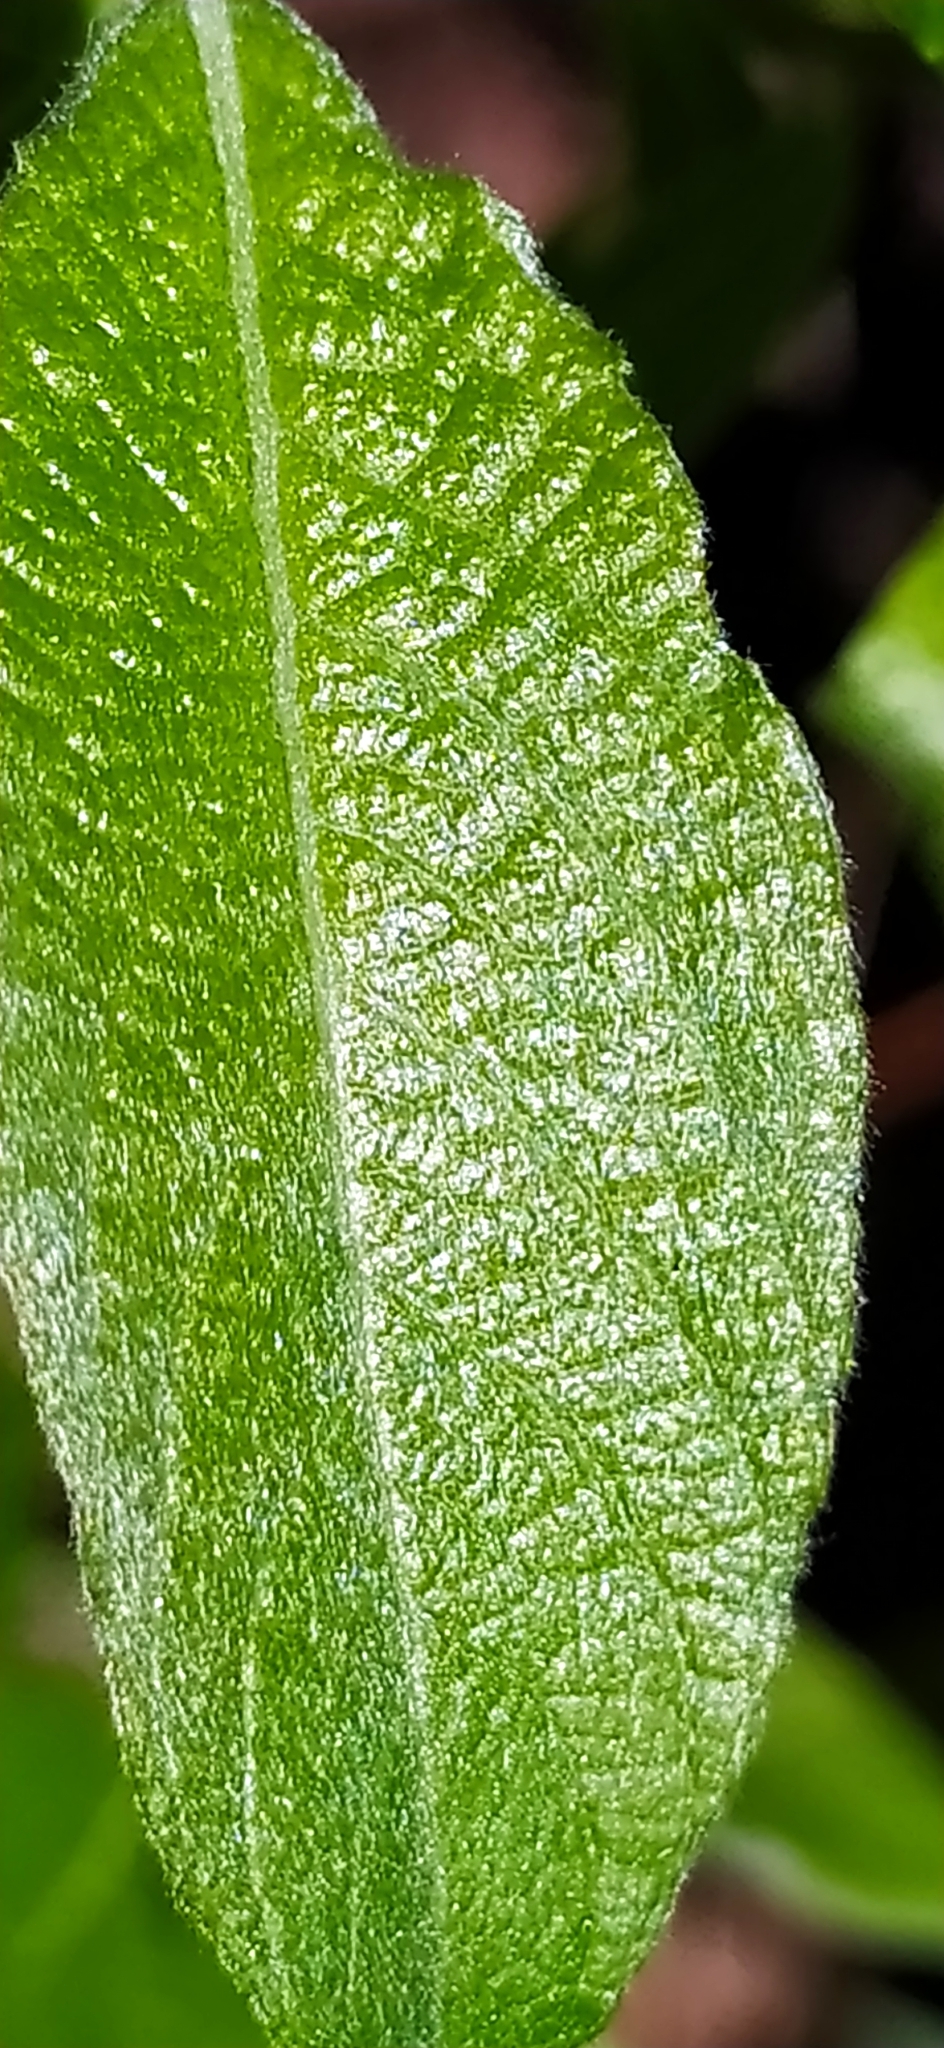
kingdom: Plantae
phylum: Tracheophyta
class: Magnoliopsida
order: Malpighiales
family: Salicaceae
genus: Salix
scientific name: Salix cinerea
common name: Common sallow
